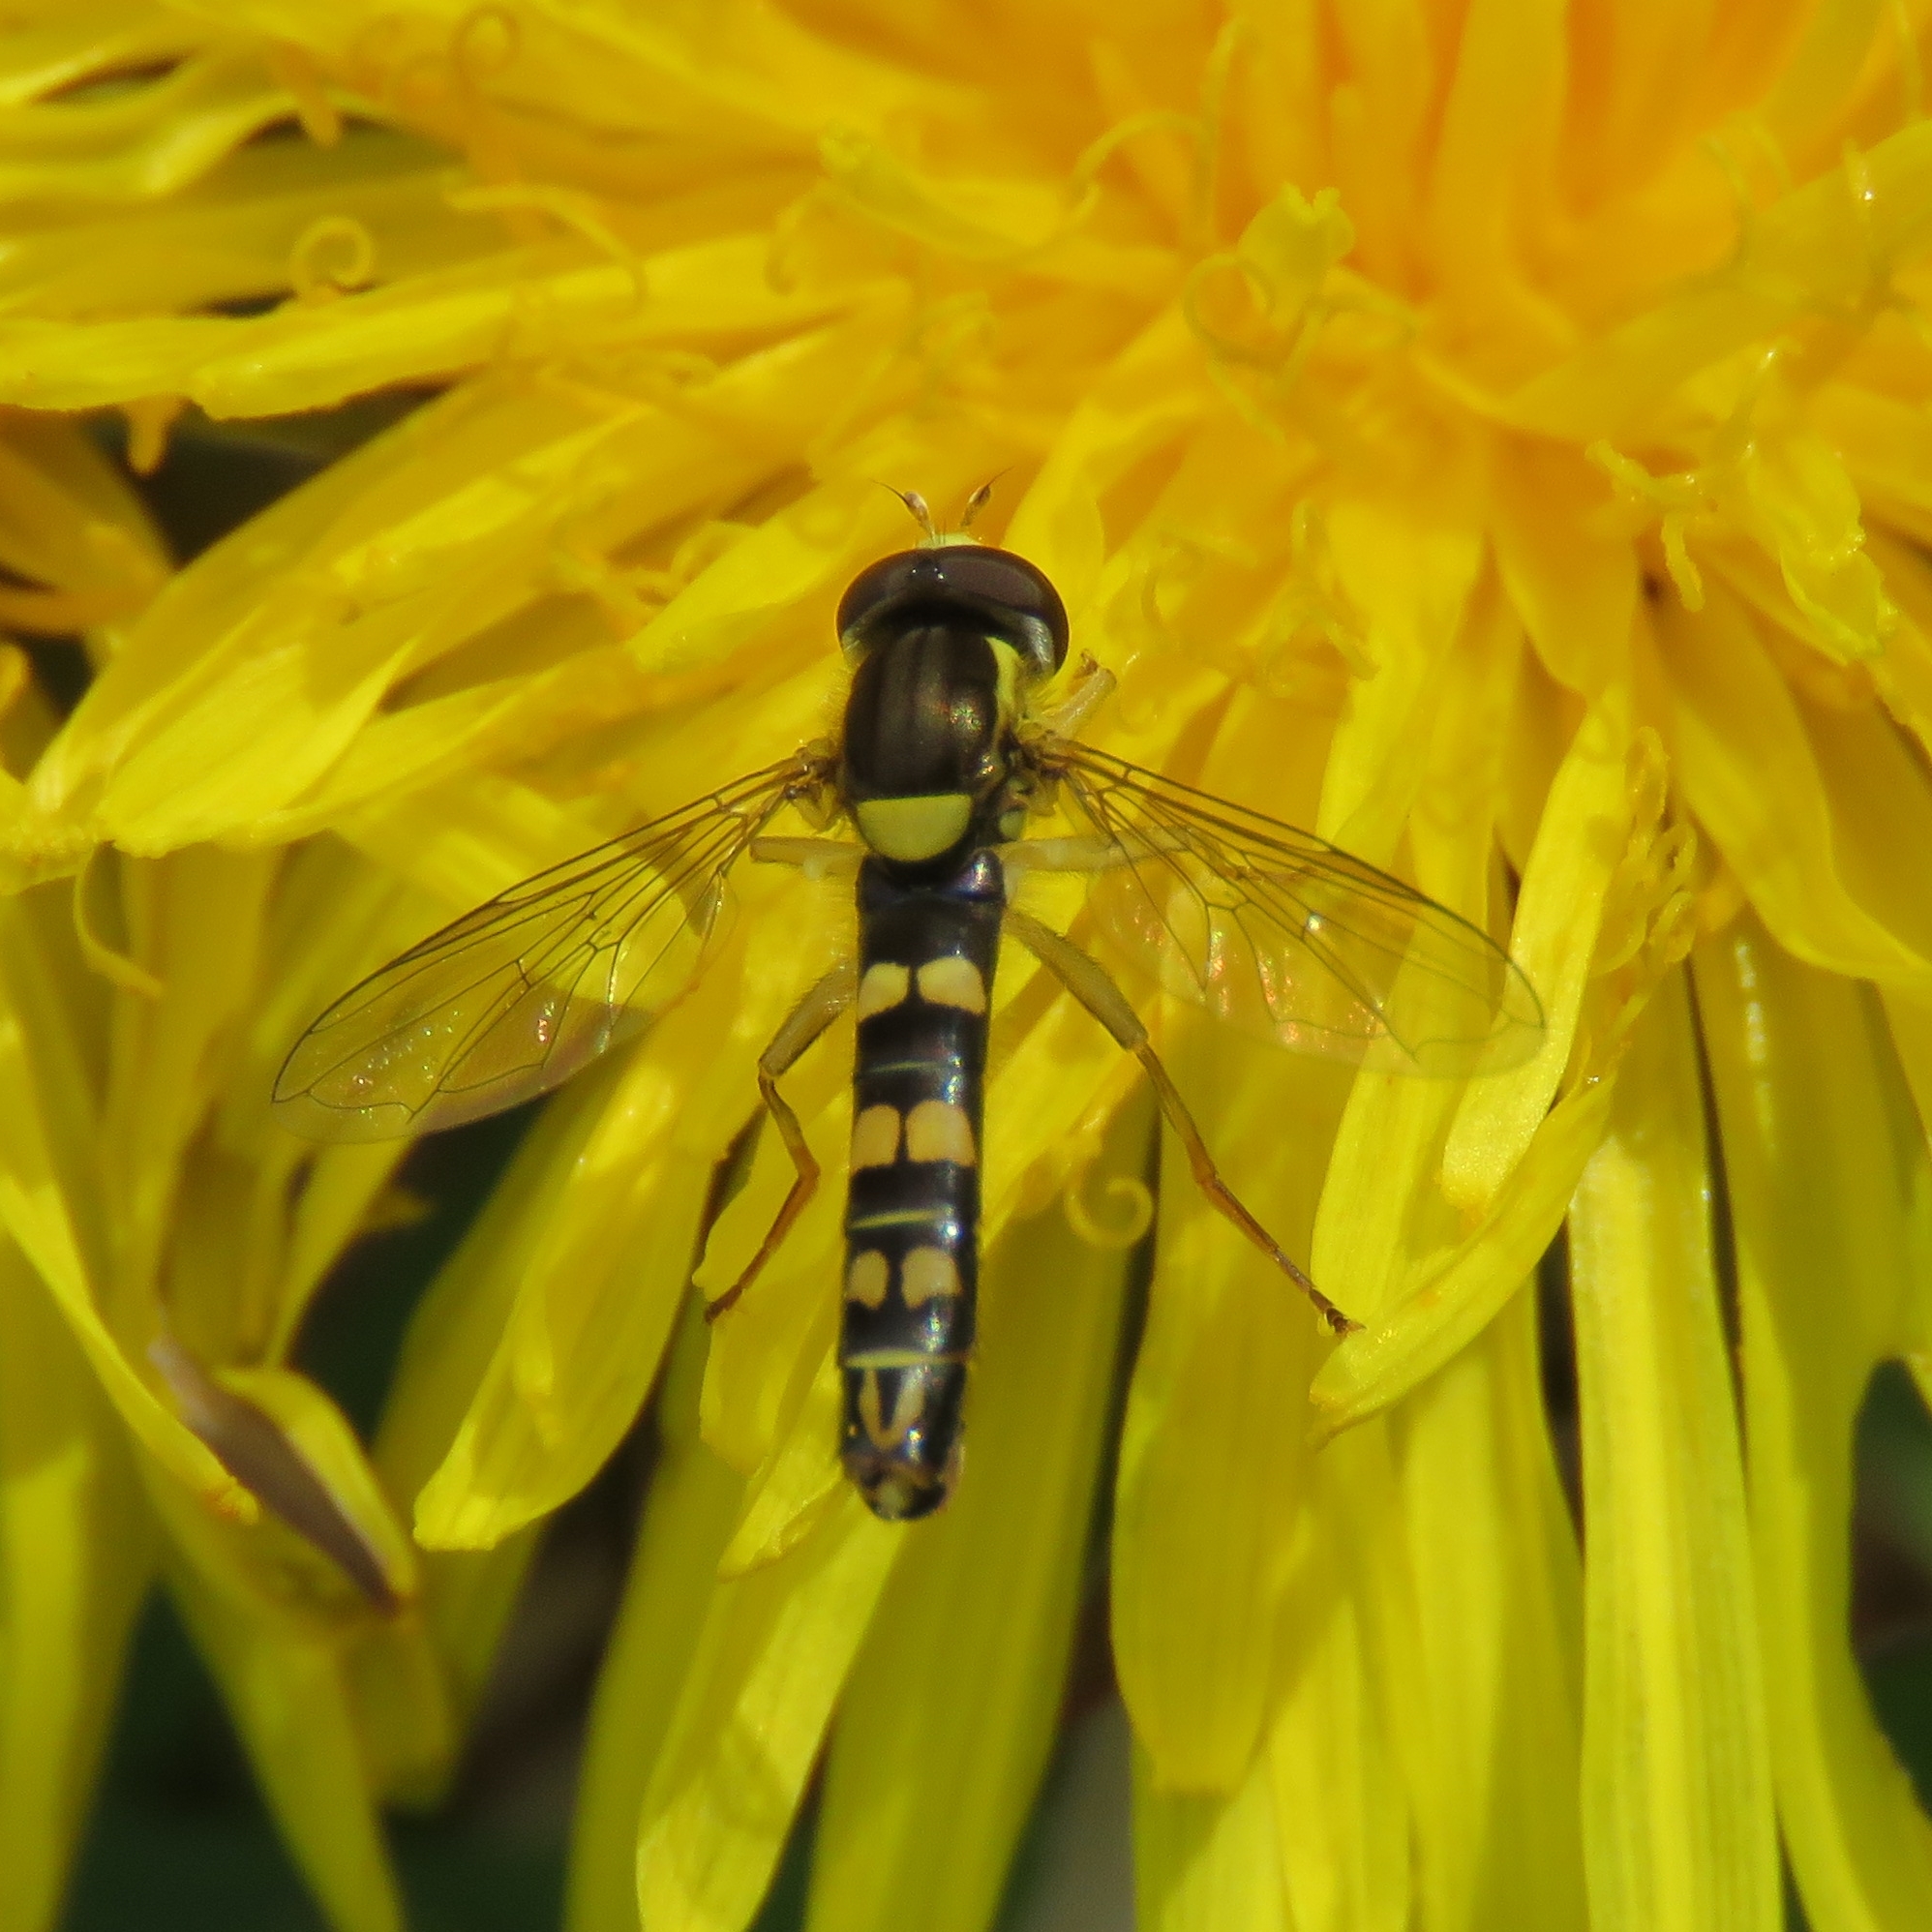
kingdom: Animalia
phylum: Arthropoda
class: Insecta
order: Diptera
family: Syrphidae
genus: Sphaerophoria
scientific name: Sphaerophoria scripta
